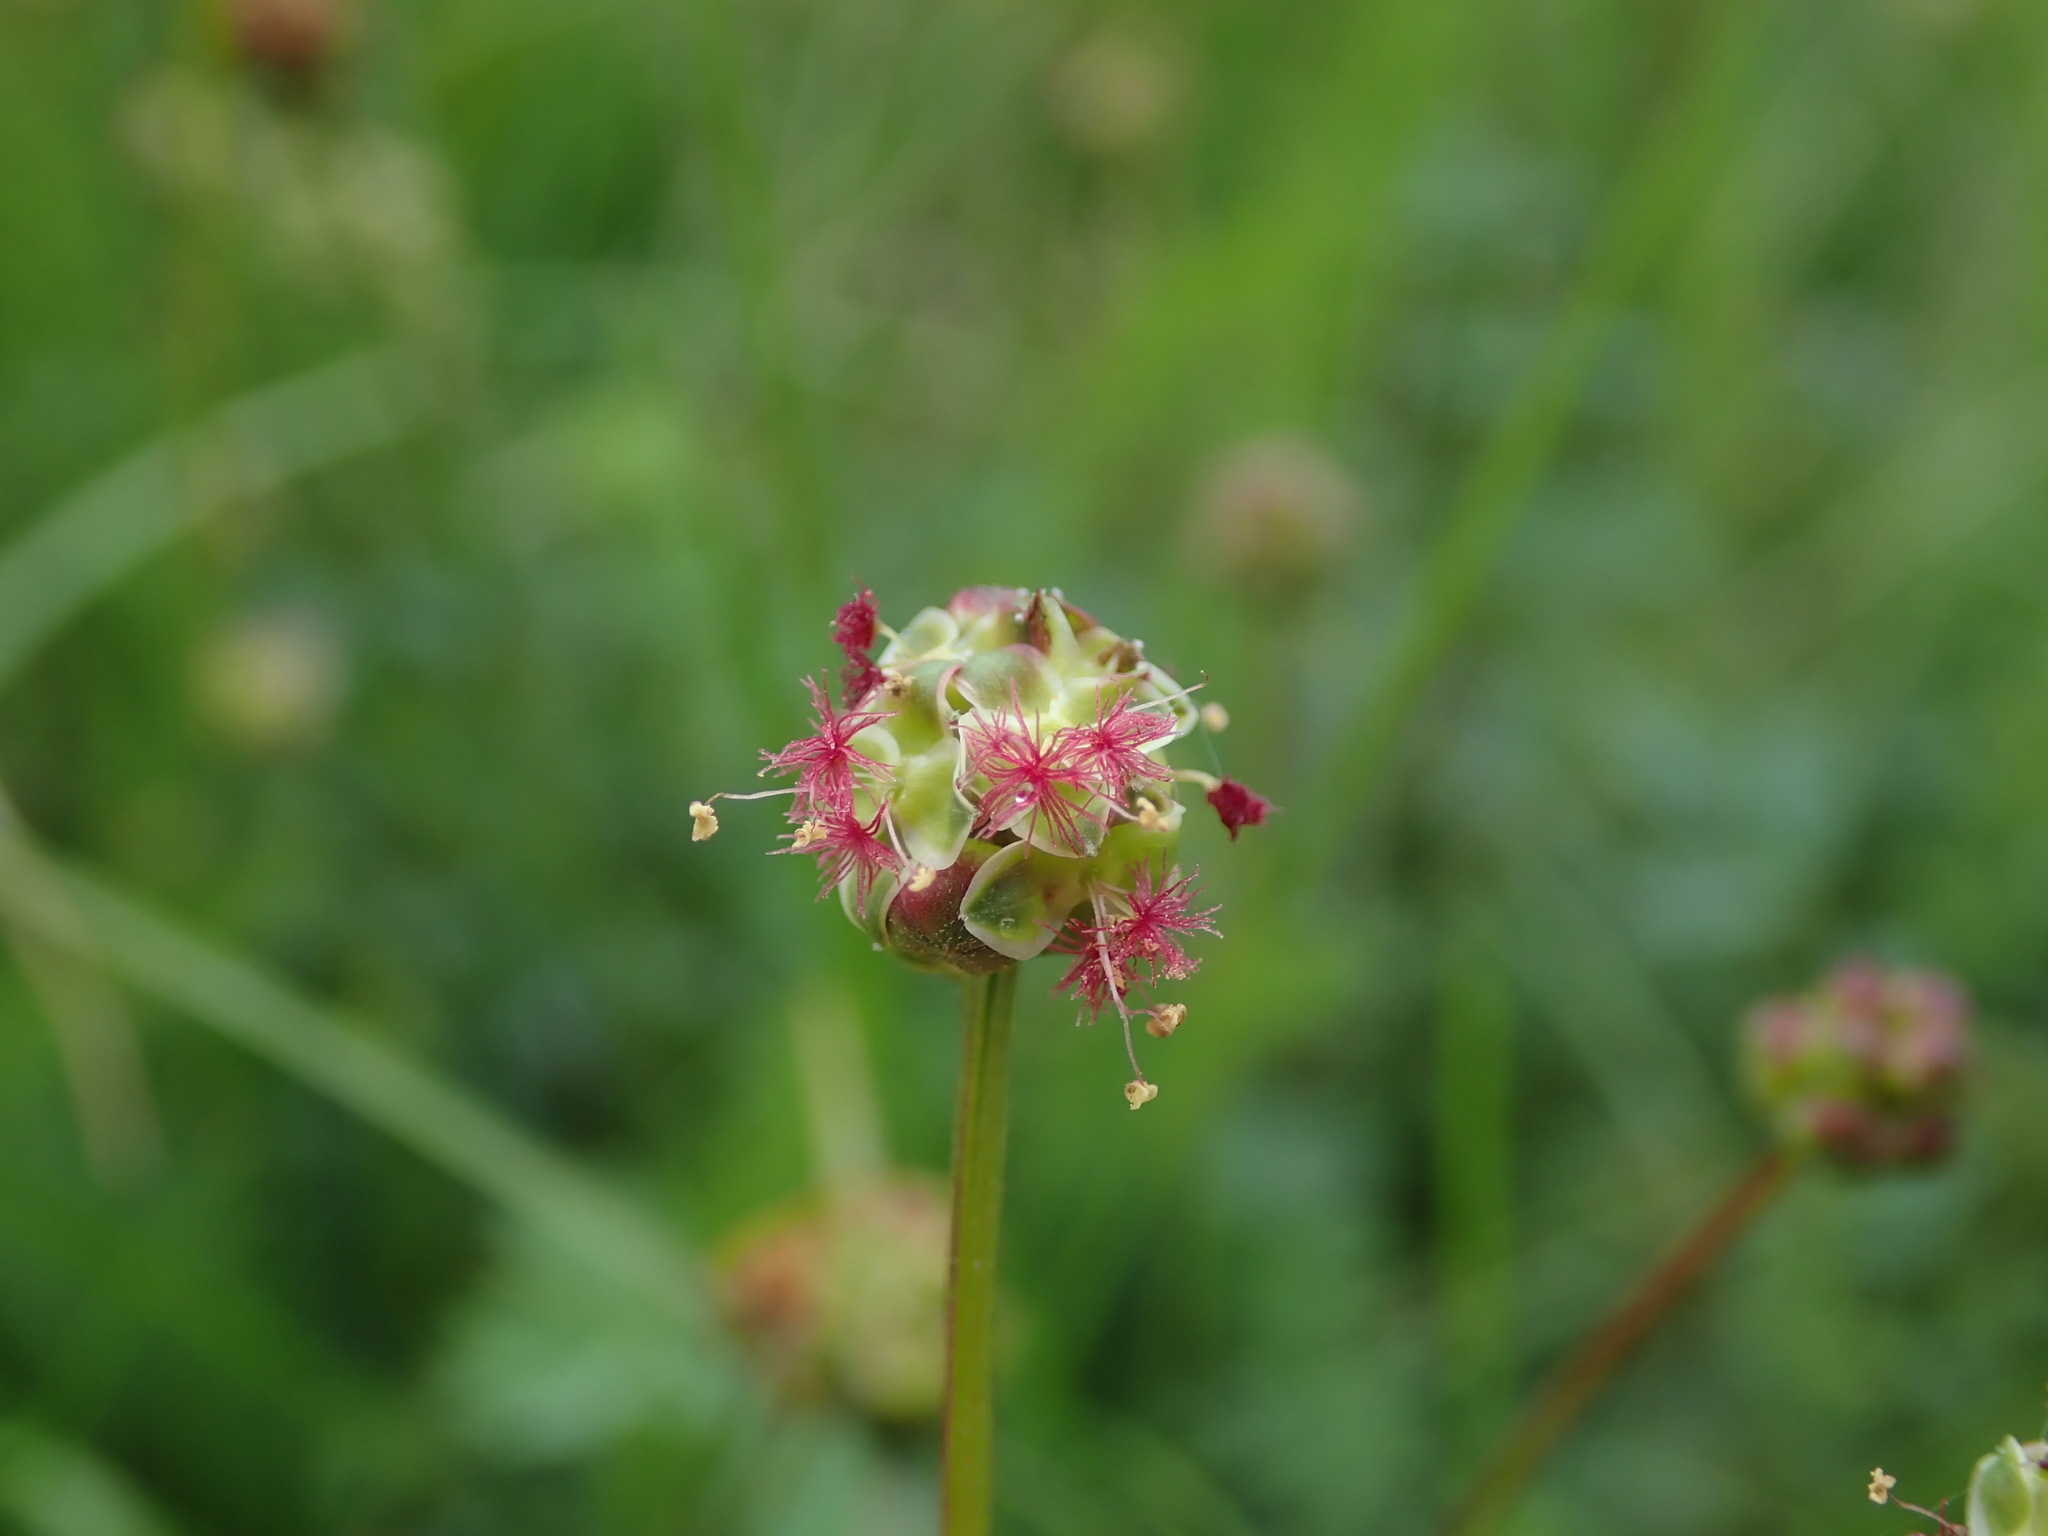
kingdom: Plantae
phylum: Tracheophyta
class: Magnoliopsida
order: Rosales
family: Rosaceae
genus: Poterium
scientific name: Poterium sanguisorba
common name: Salad burnet
